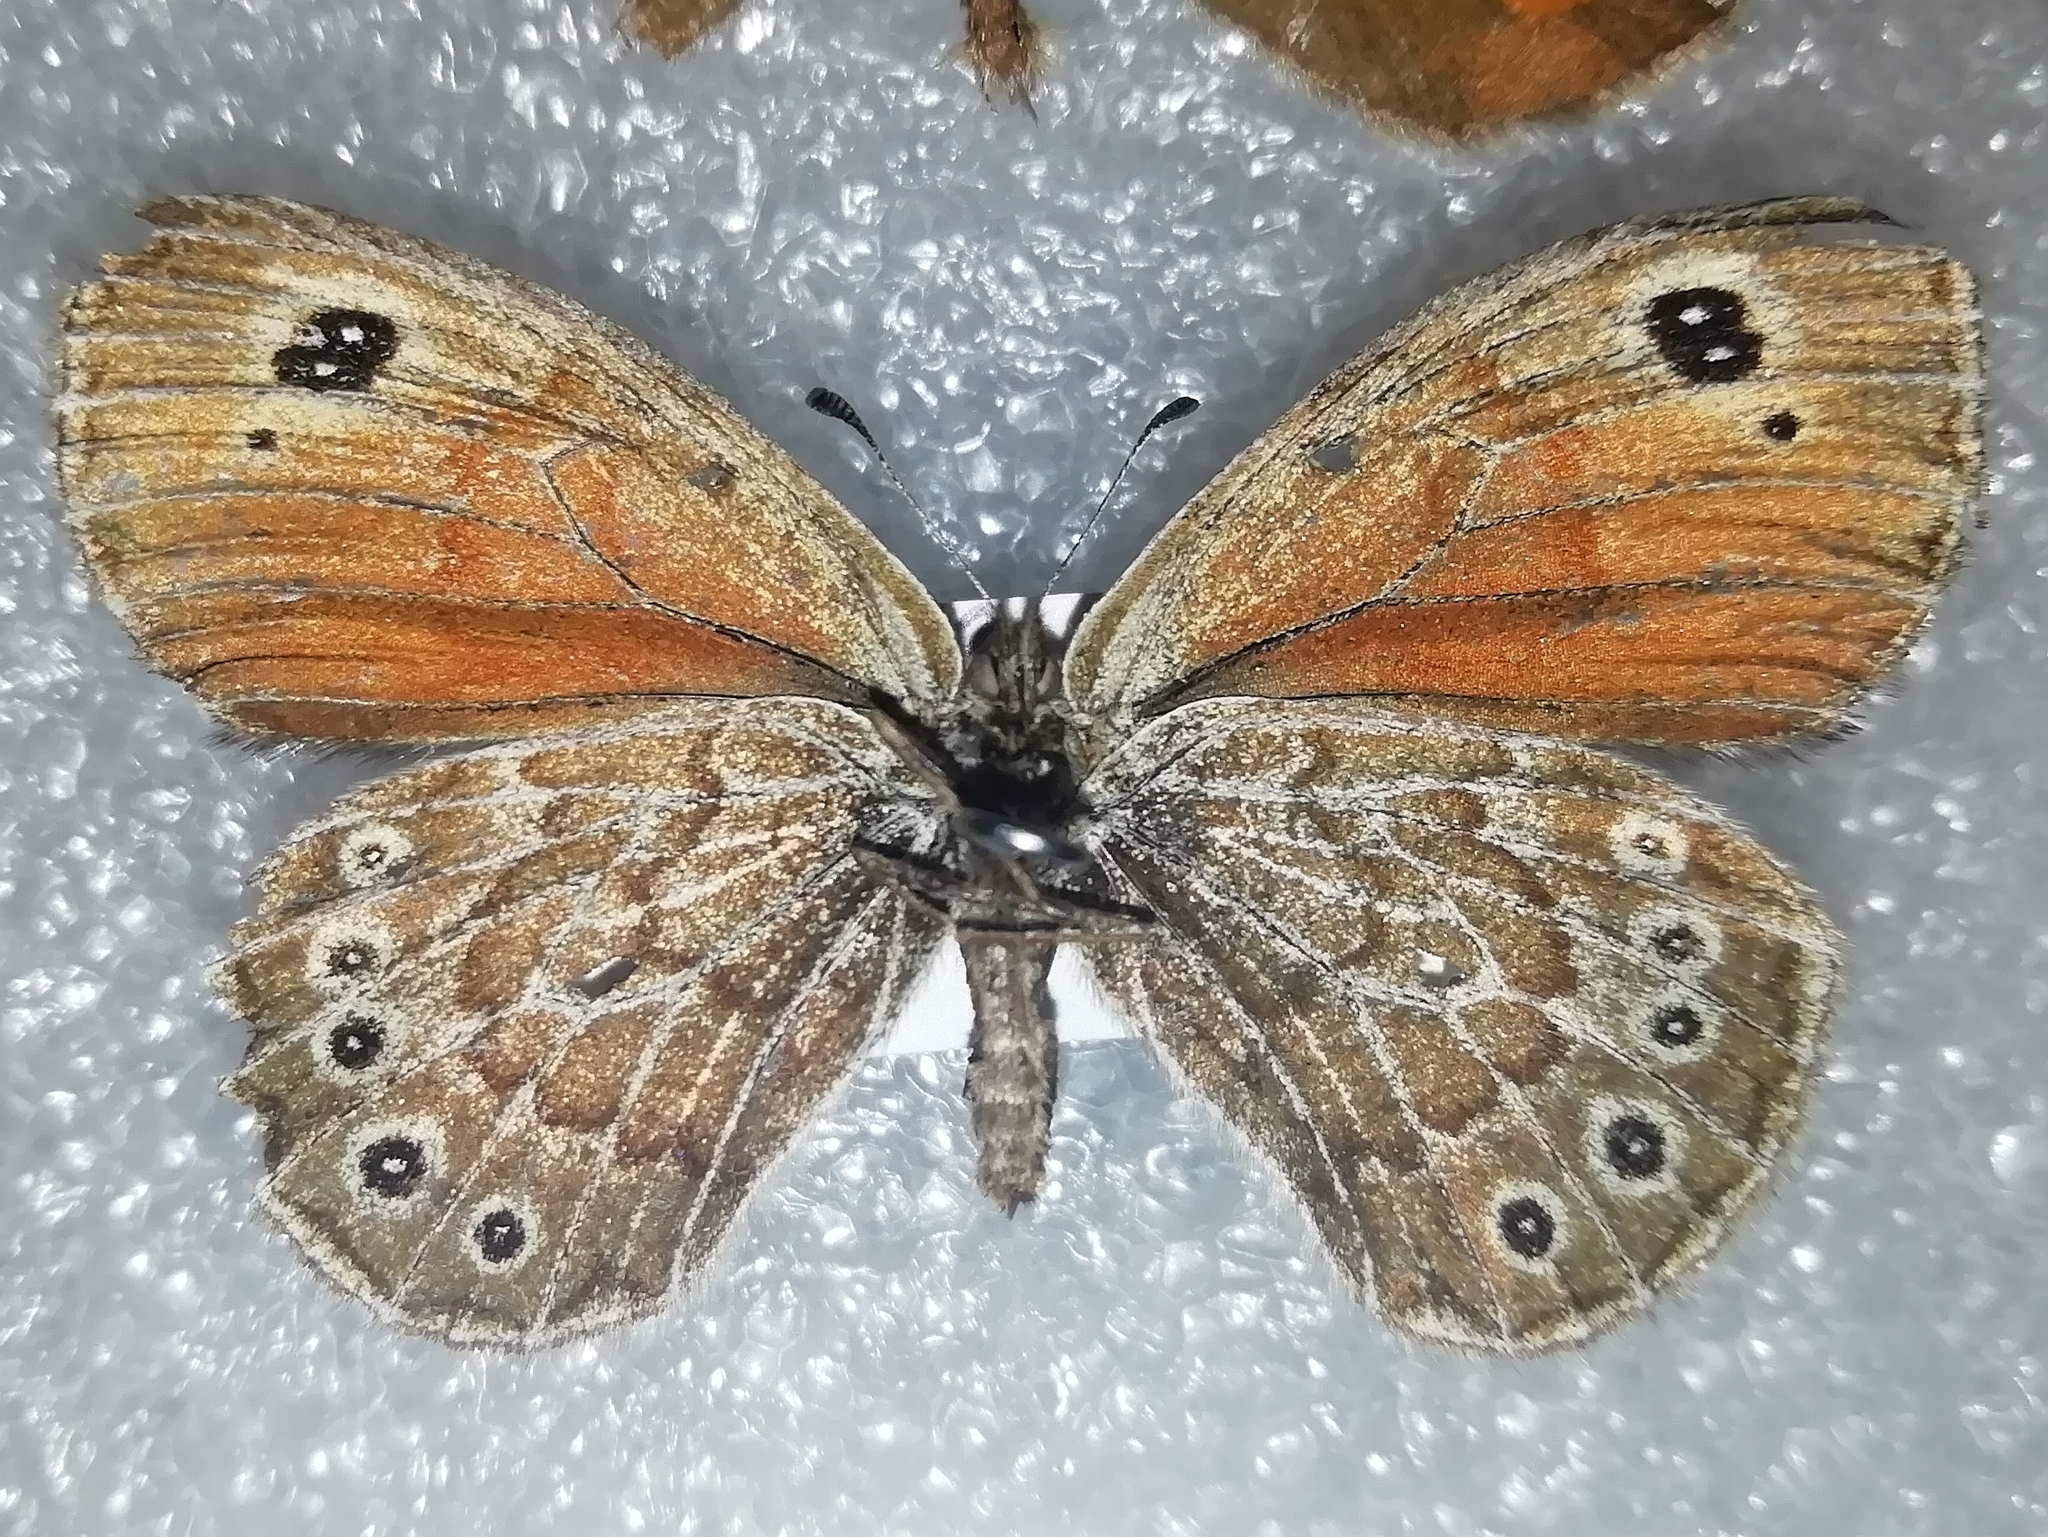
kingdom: Animalia
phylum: Arthropoda
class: Insecta
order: Lepidoptera
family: Nymphalidae
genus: Erebia
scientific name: Erebia Boeberia parmenio
